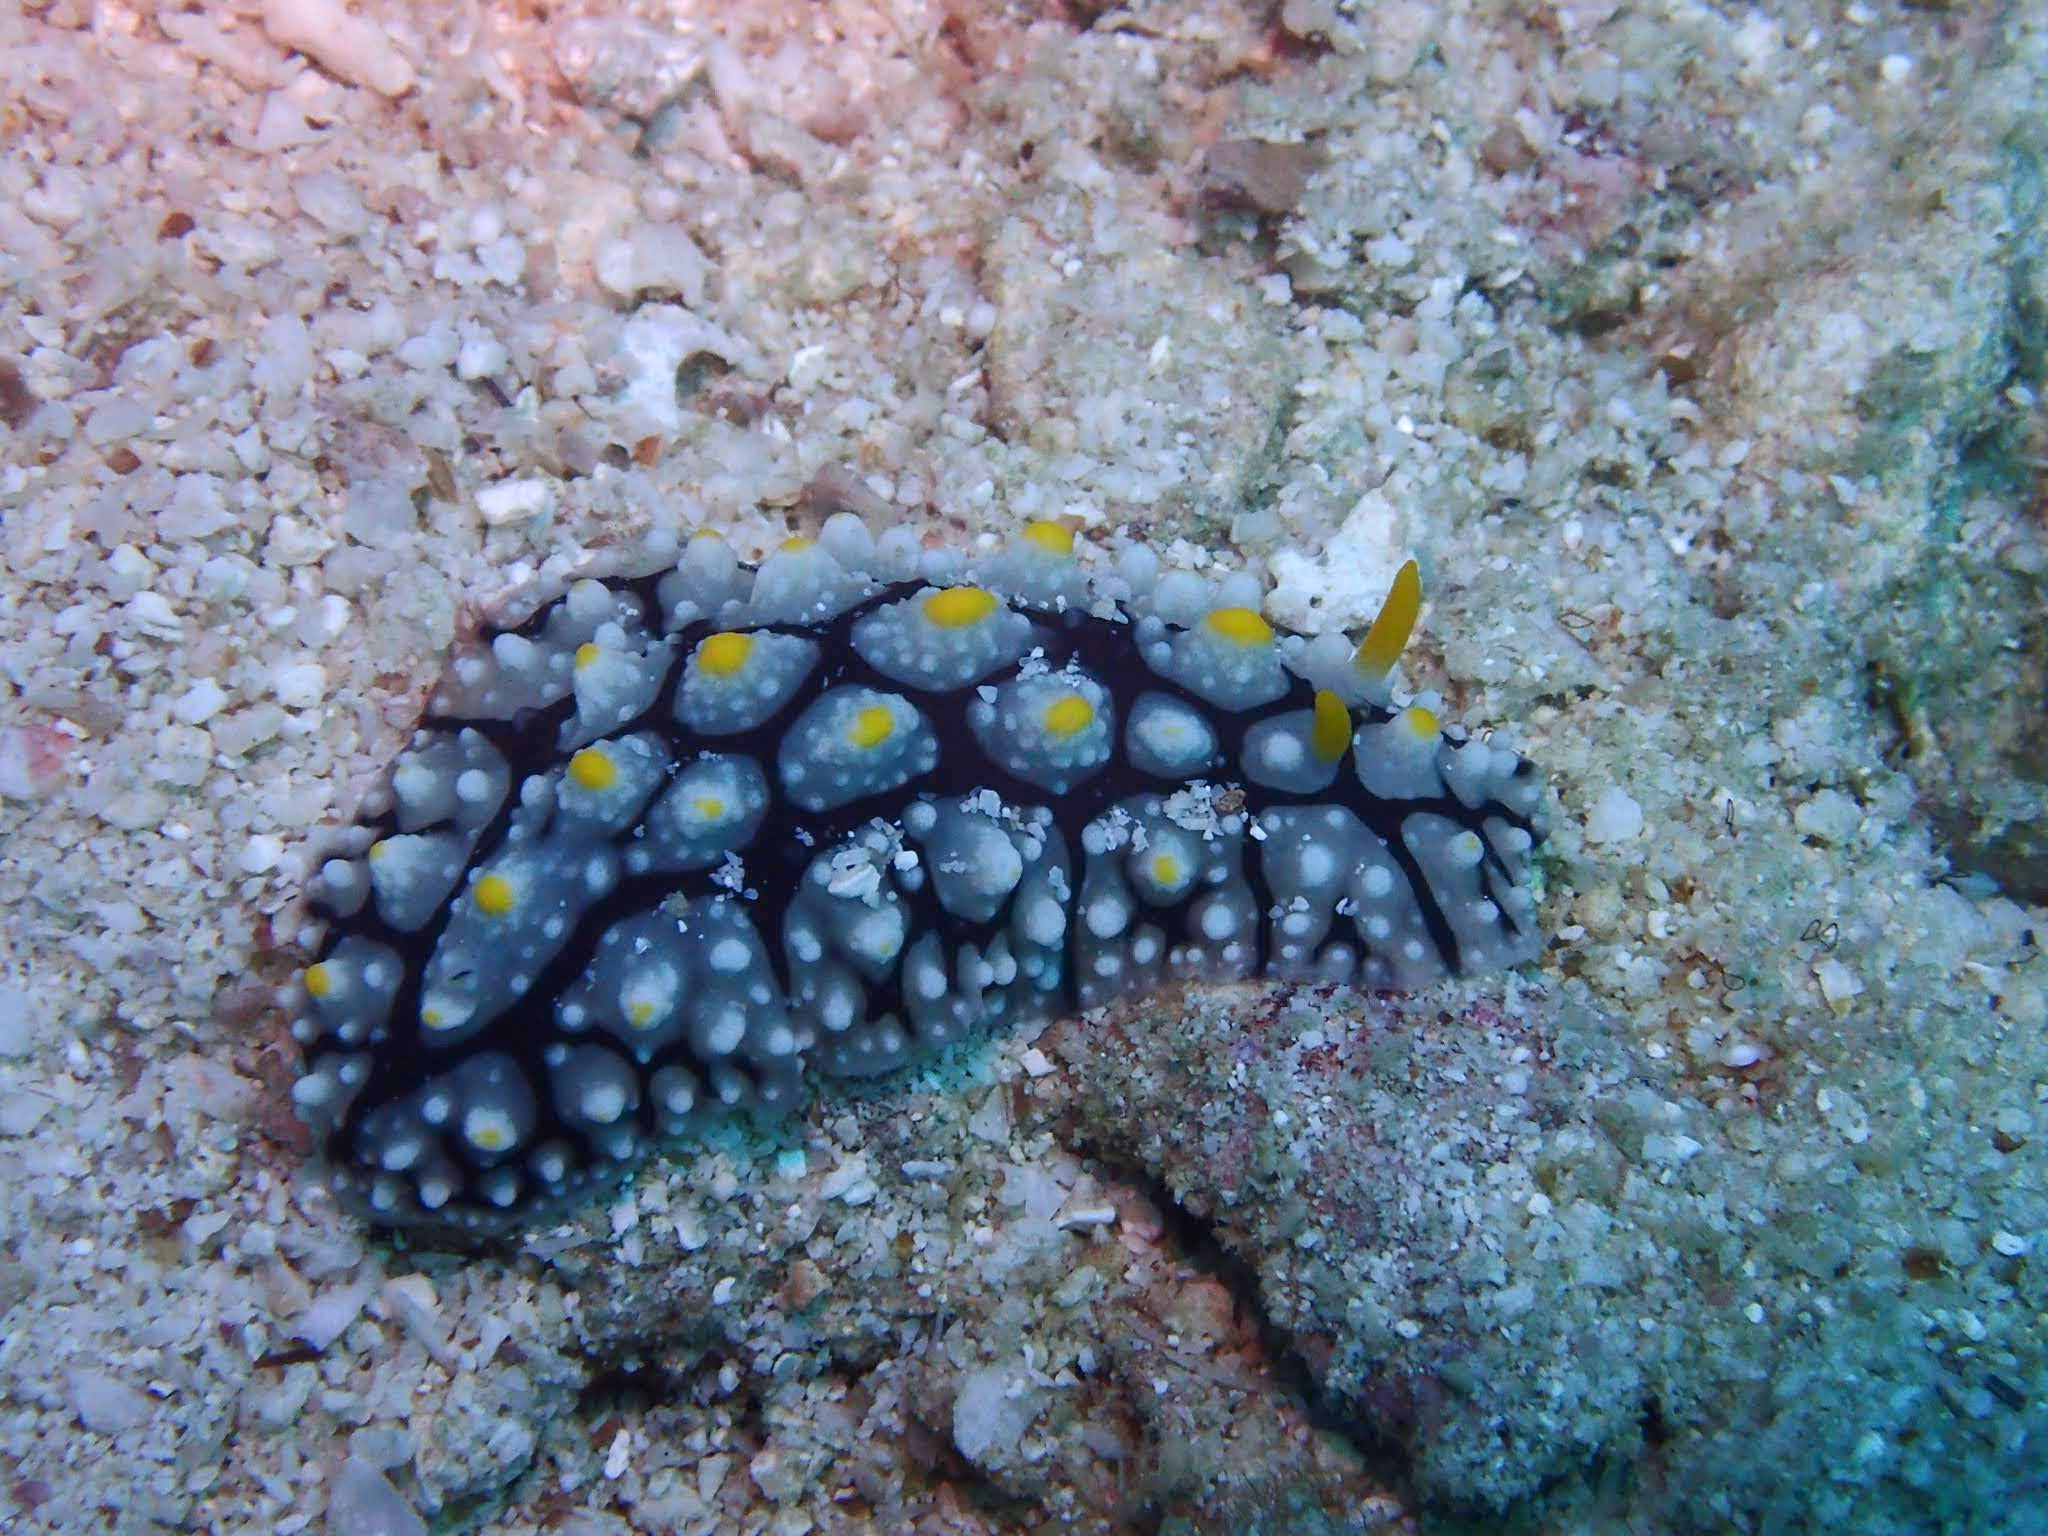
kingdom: Animalia
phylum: Mollusca
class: Gastropoda
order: Nudibranchia
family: Phyllidiidae
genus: Phyllidia
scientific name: Phyllidia elegans
